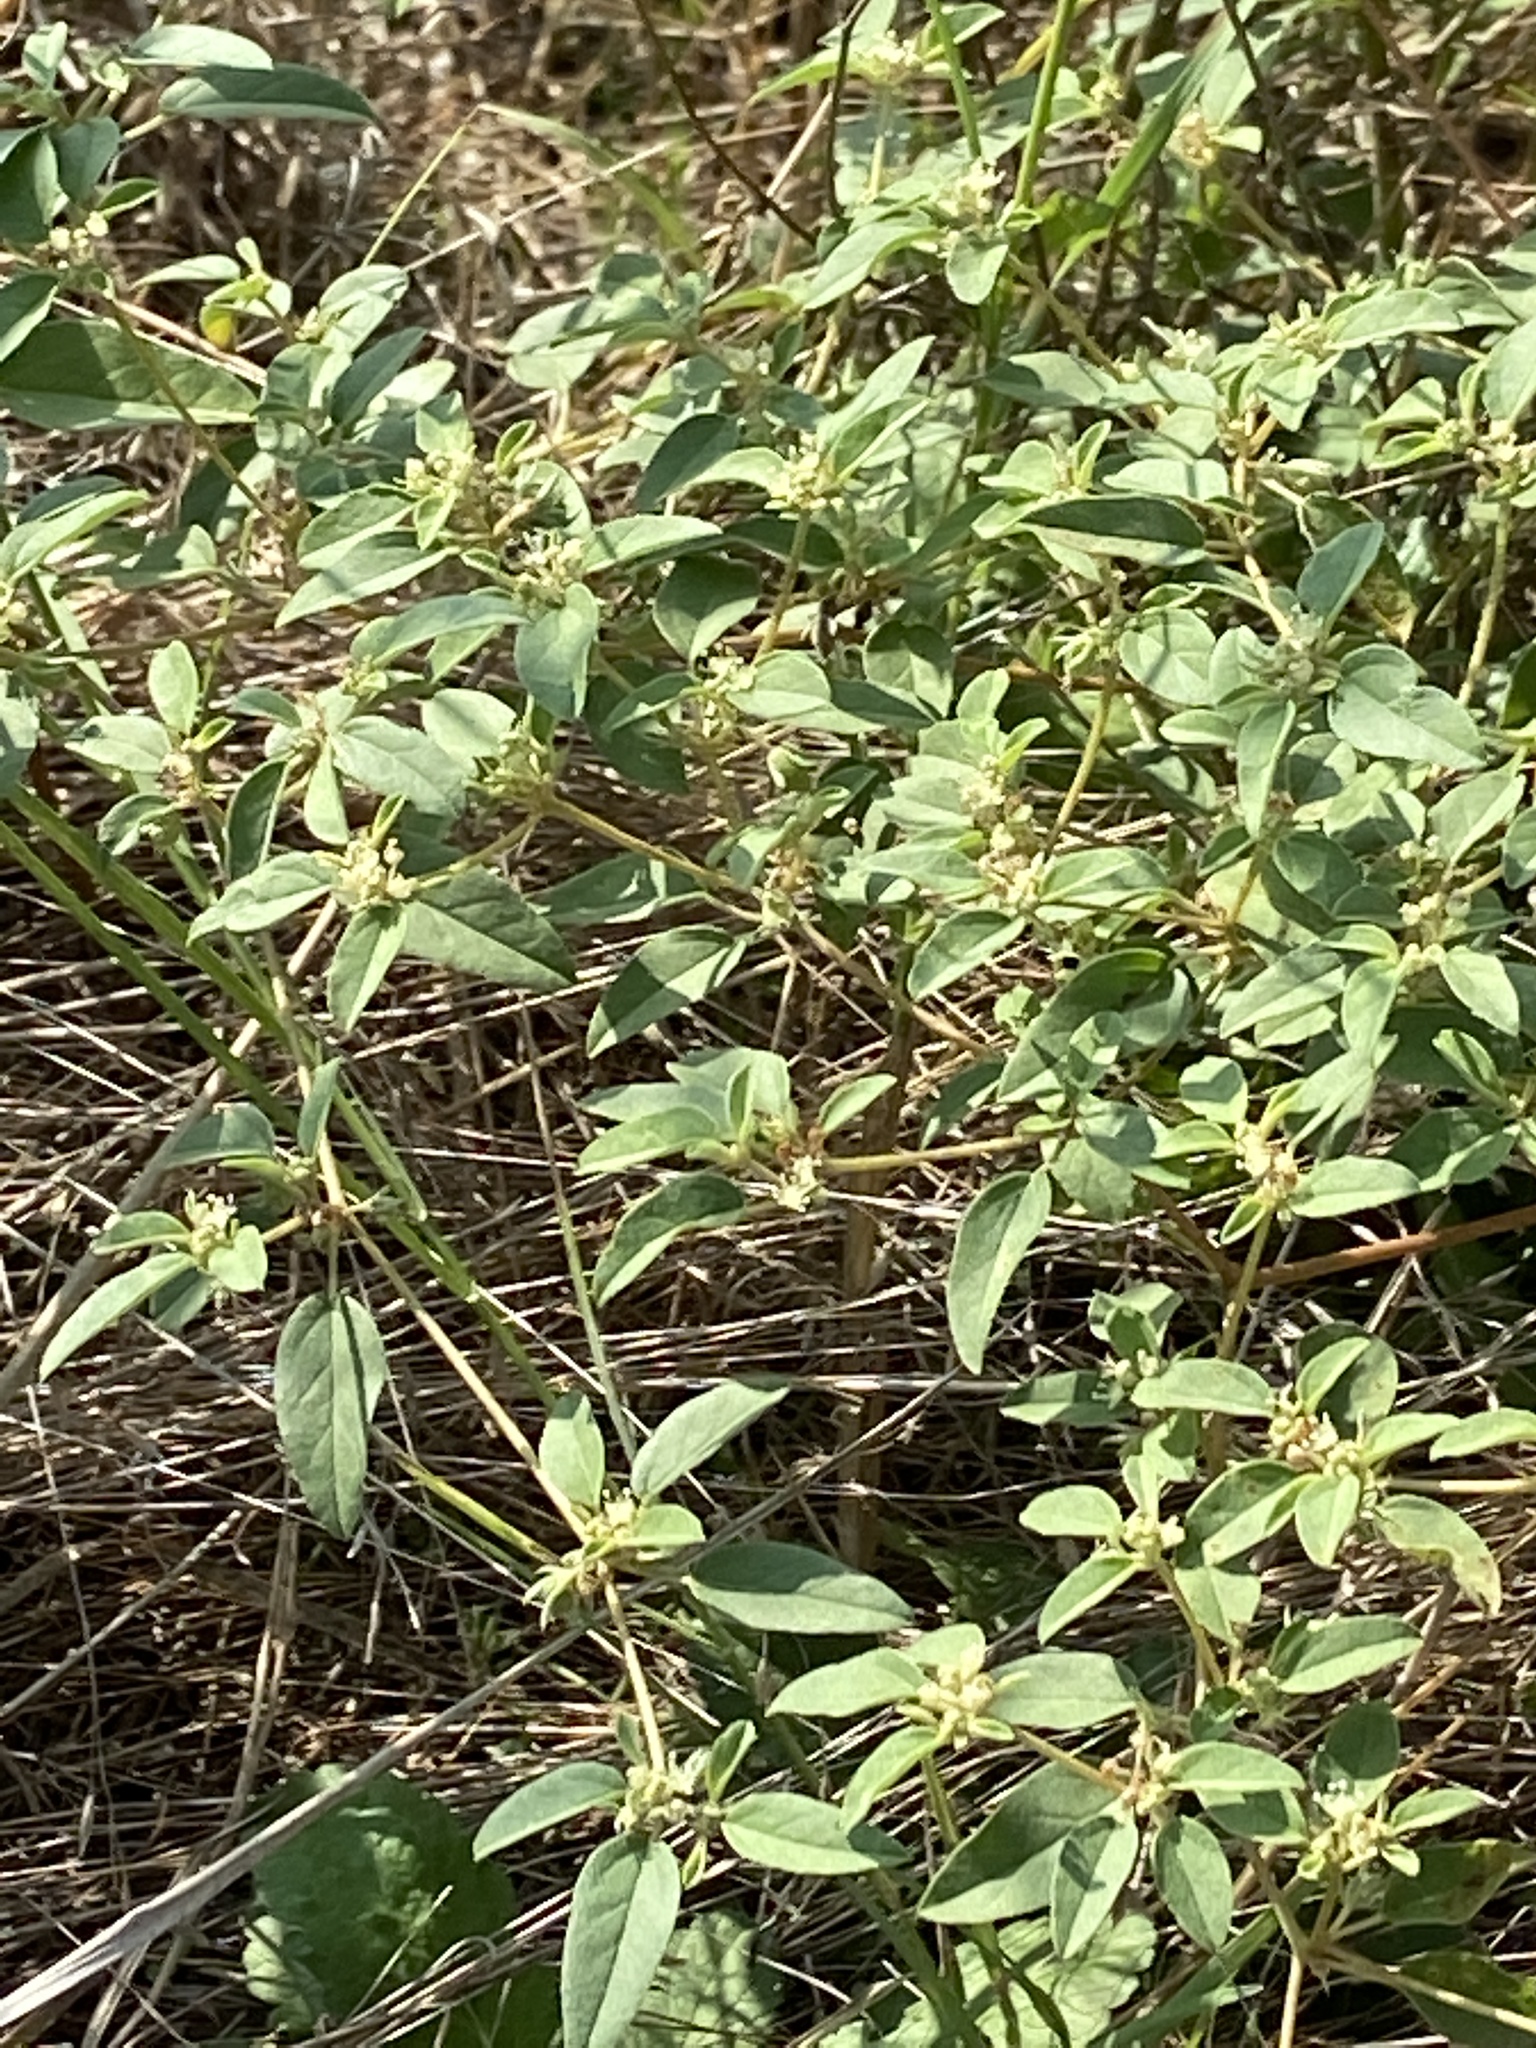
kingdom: Plantae
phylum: Tracheophyta
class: Magnoliopsida
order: Malpighiales
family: Euphorbiaceae
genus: Croton
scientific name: Croton monanthogynus
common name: One-seed croton
